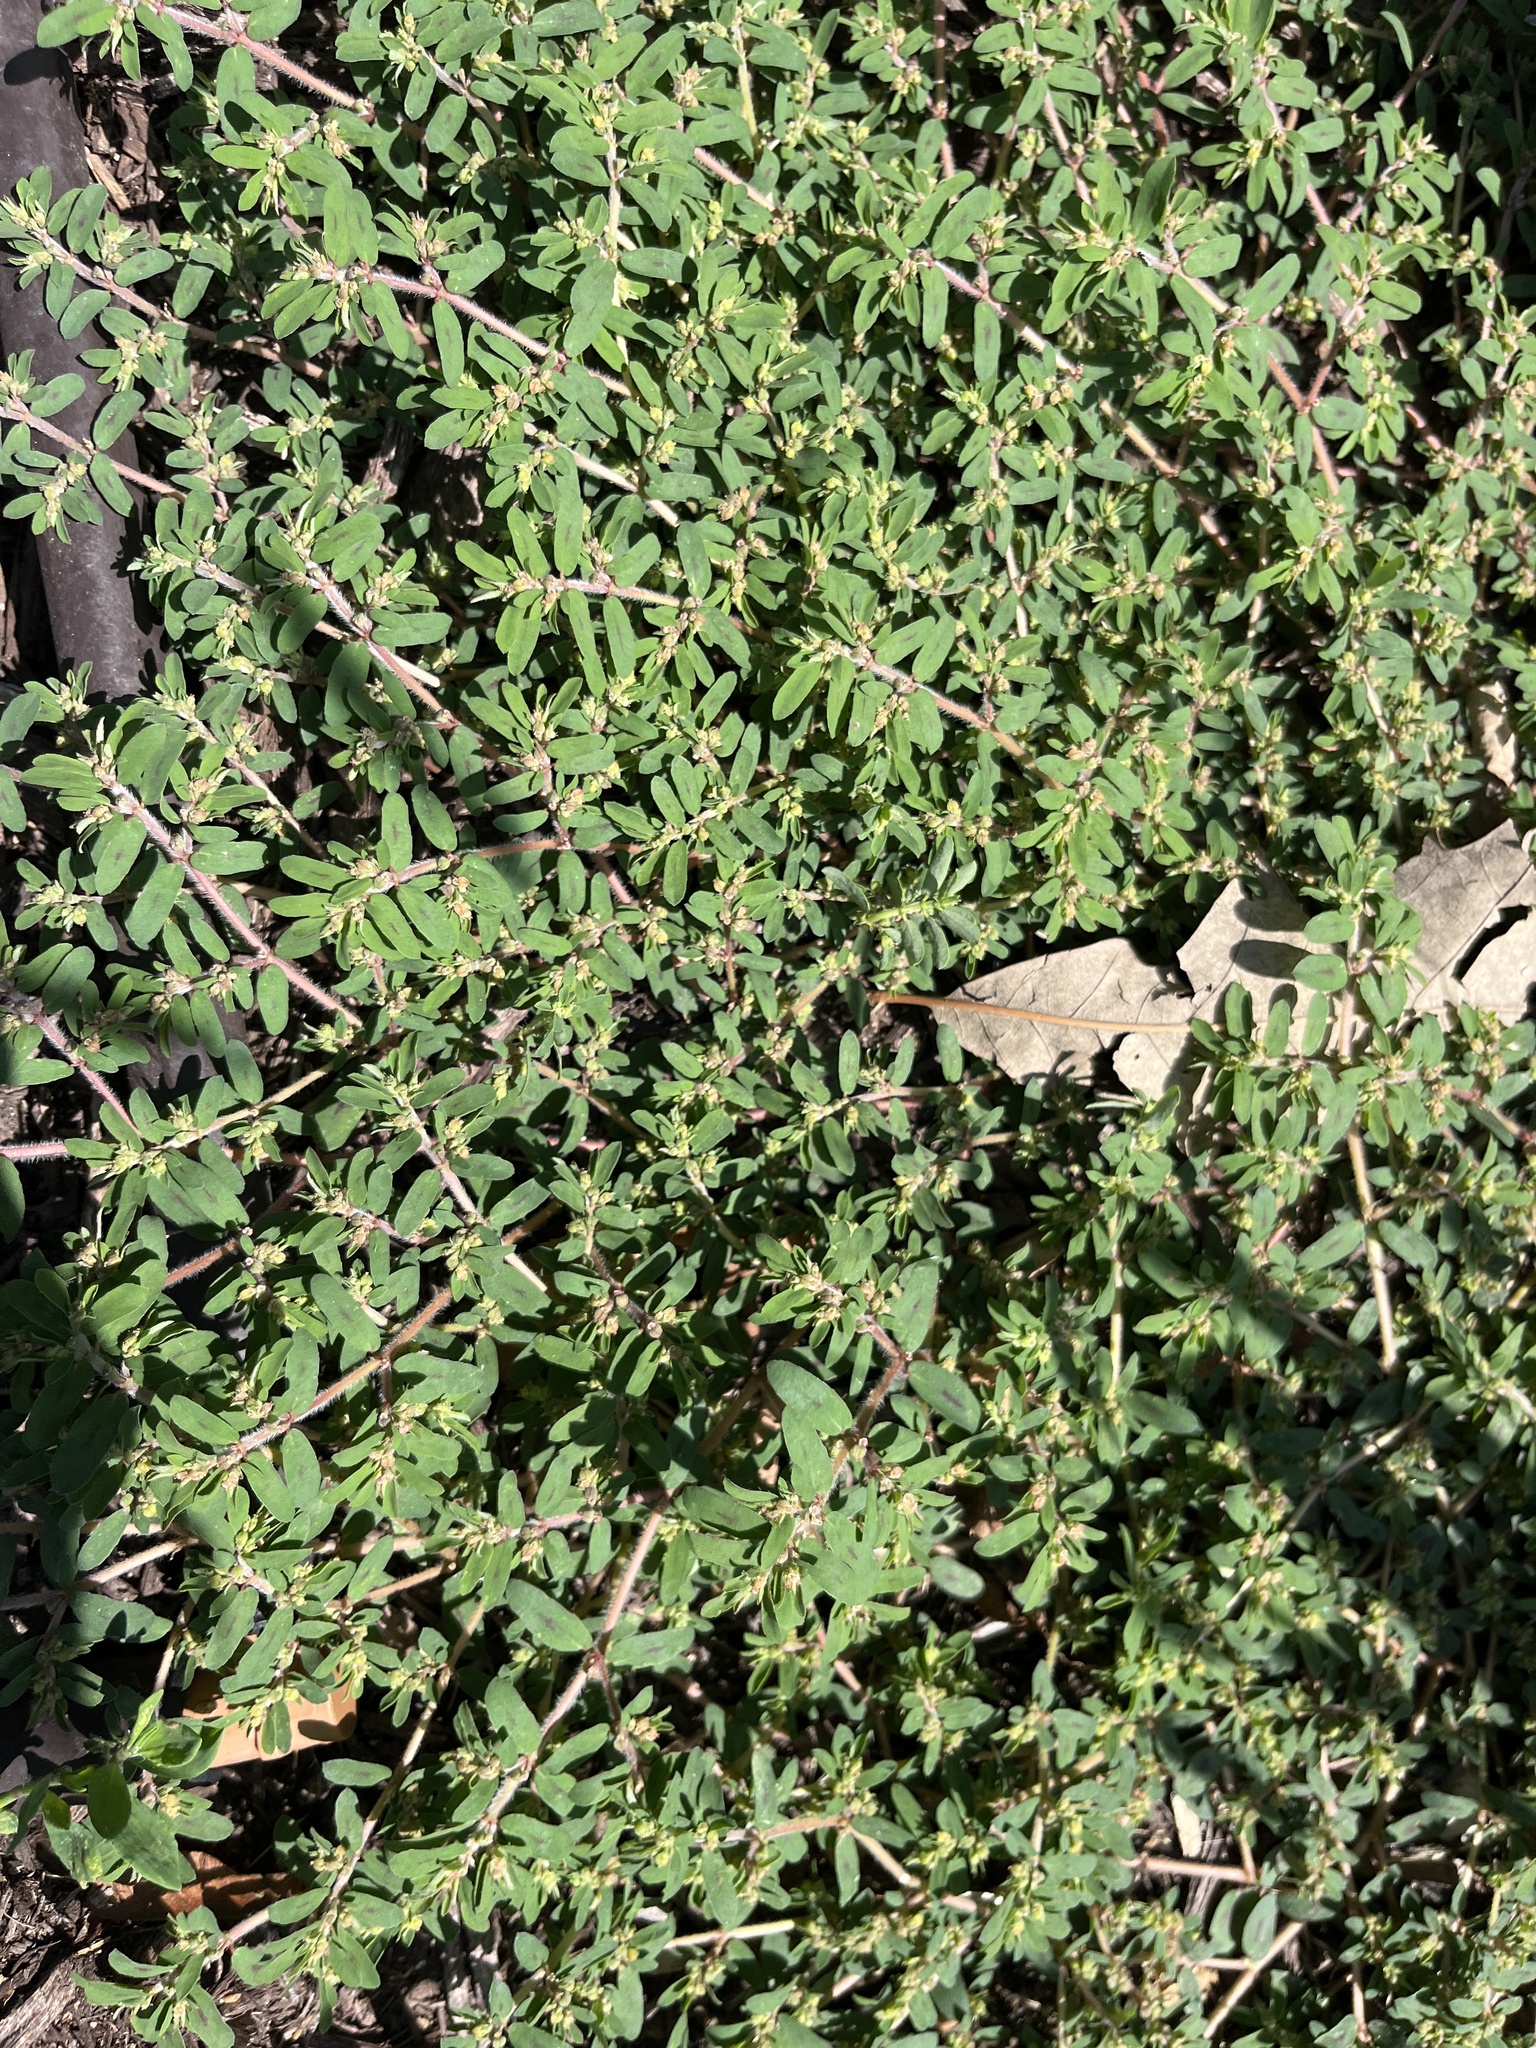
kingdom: Plantae
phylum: Tracheophyta
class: Magnoliopsida
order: Malpighiales
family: Euphorbiaceae
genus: Euphorbia
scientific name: Euphorbia maculata
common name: Spotted spurge
